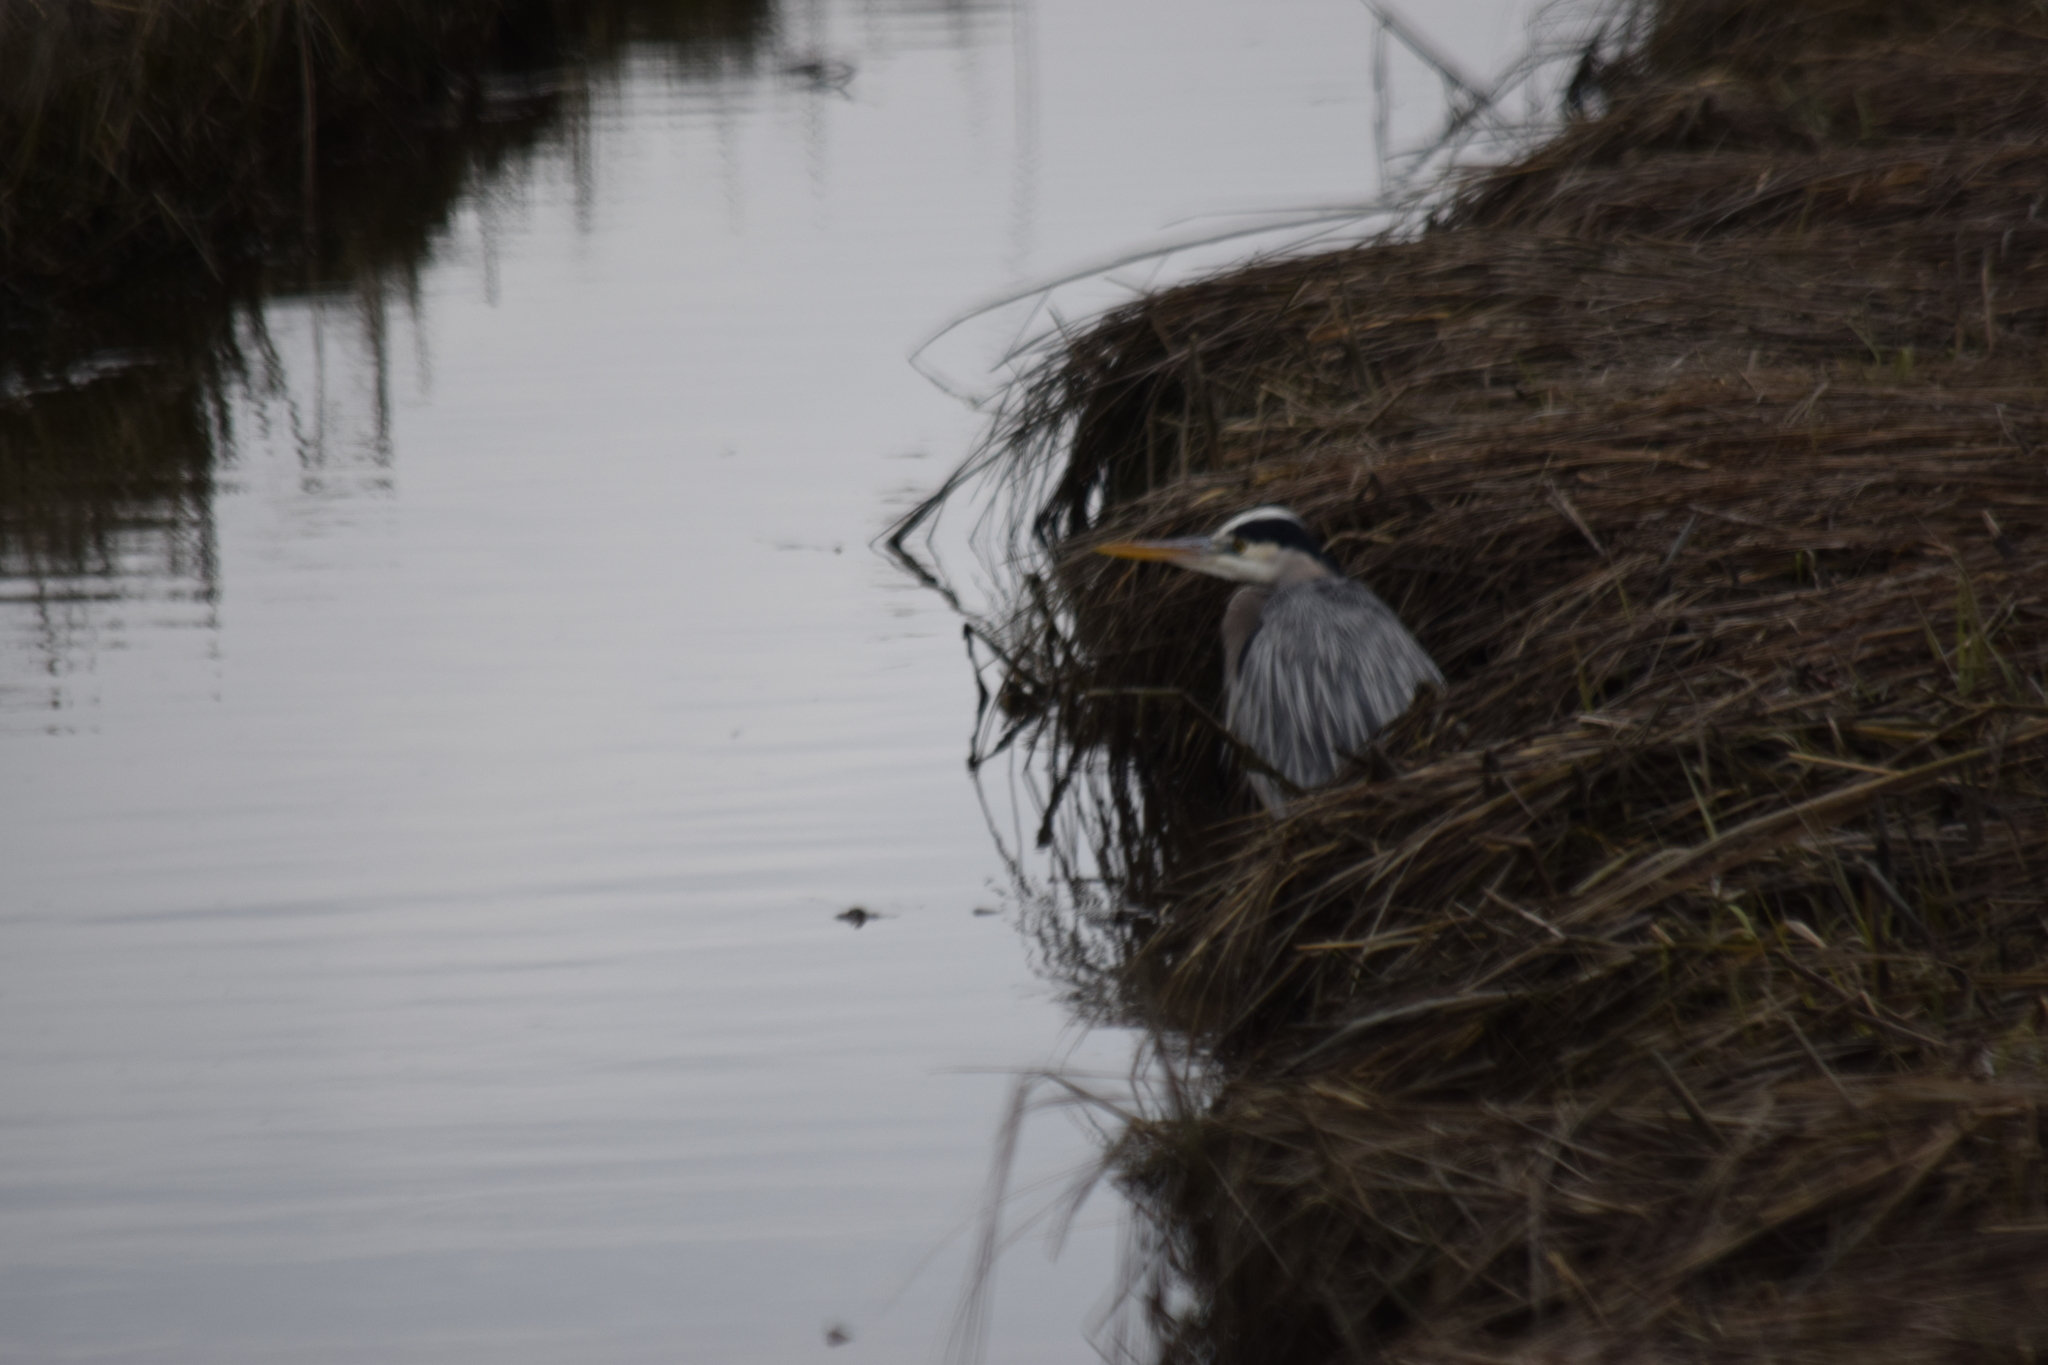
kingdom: Animalia
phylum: Chordata
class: Aves
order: Pelecaniformes
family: Ardeidae
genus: Ardea
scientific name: Ardea herodias
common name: Great blue heron
